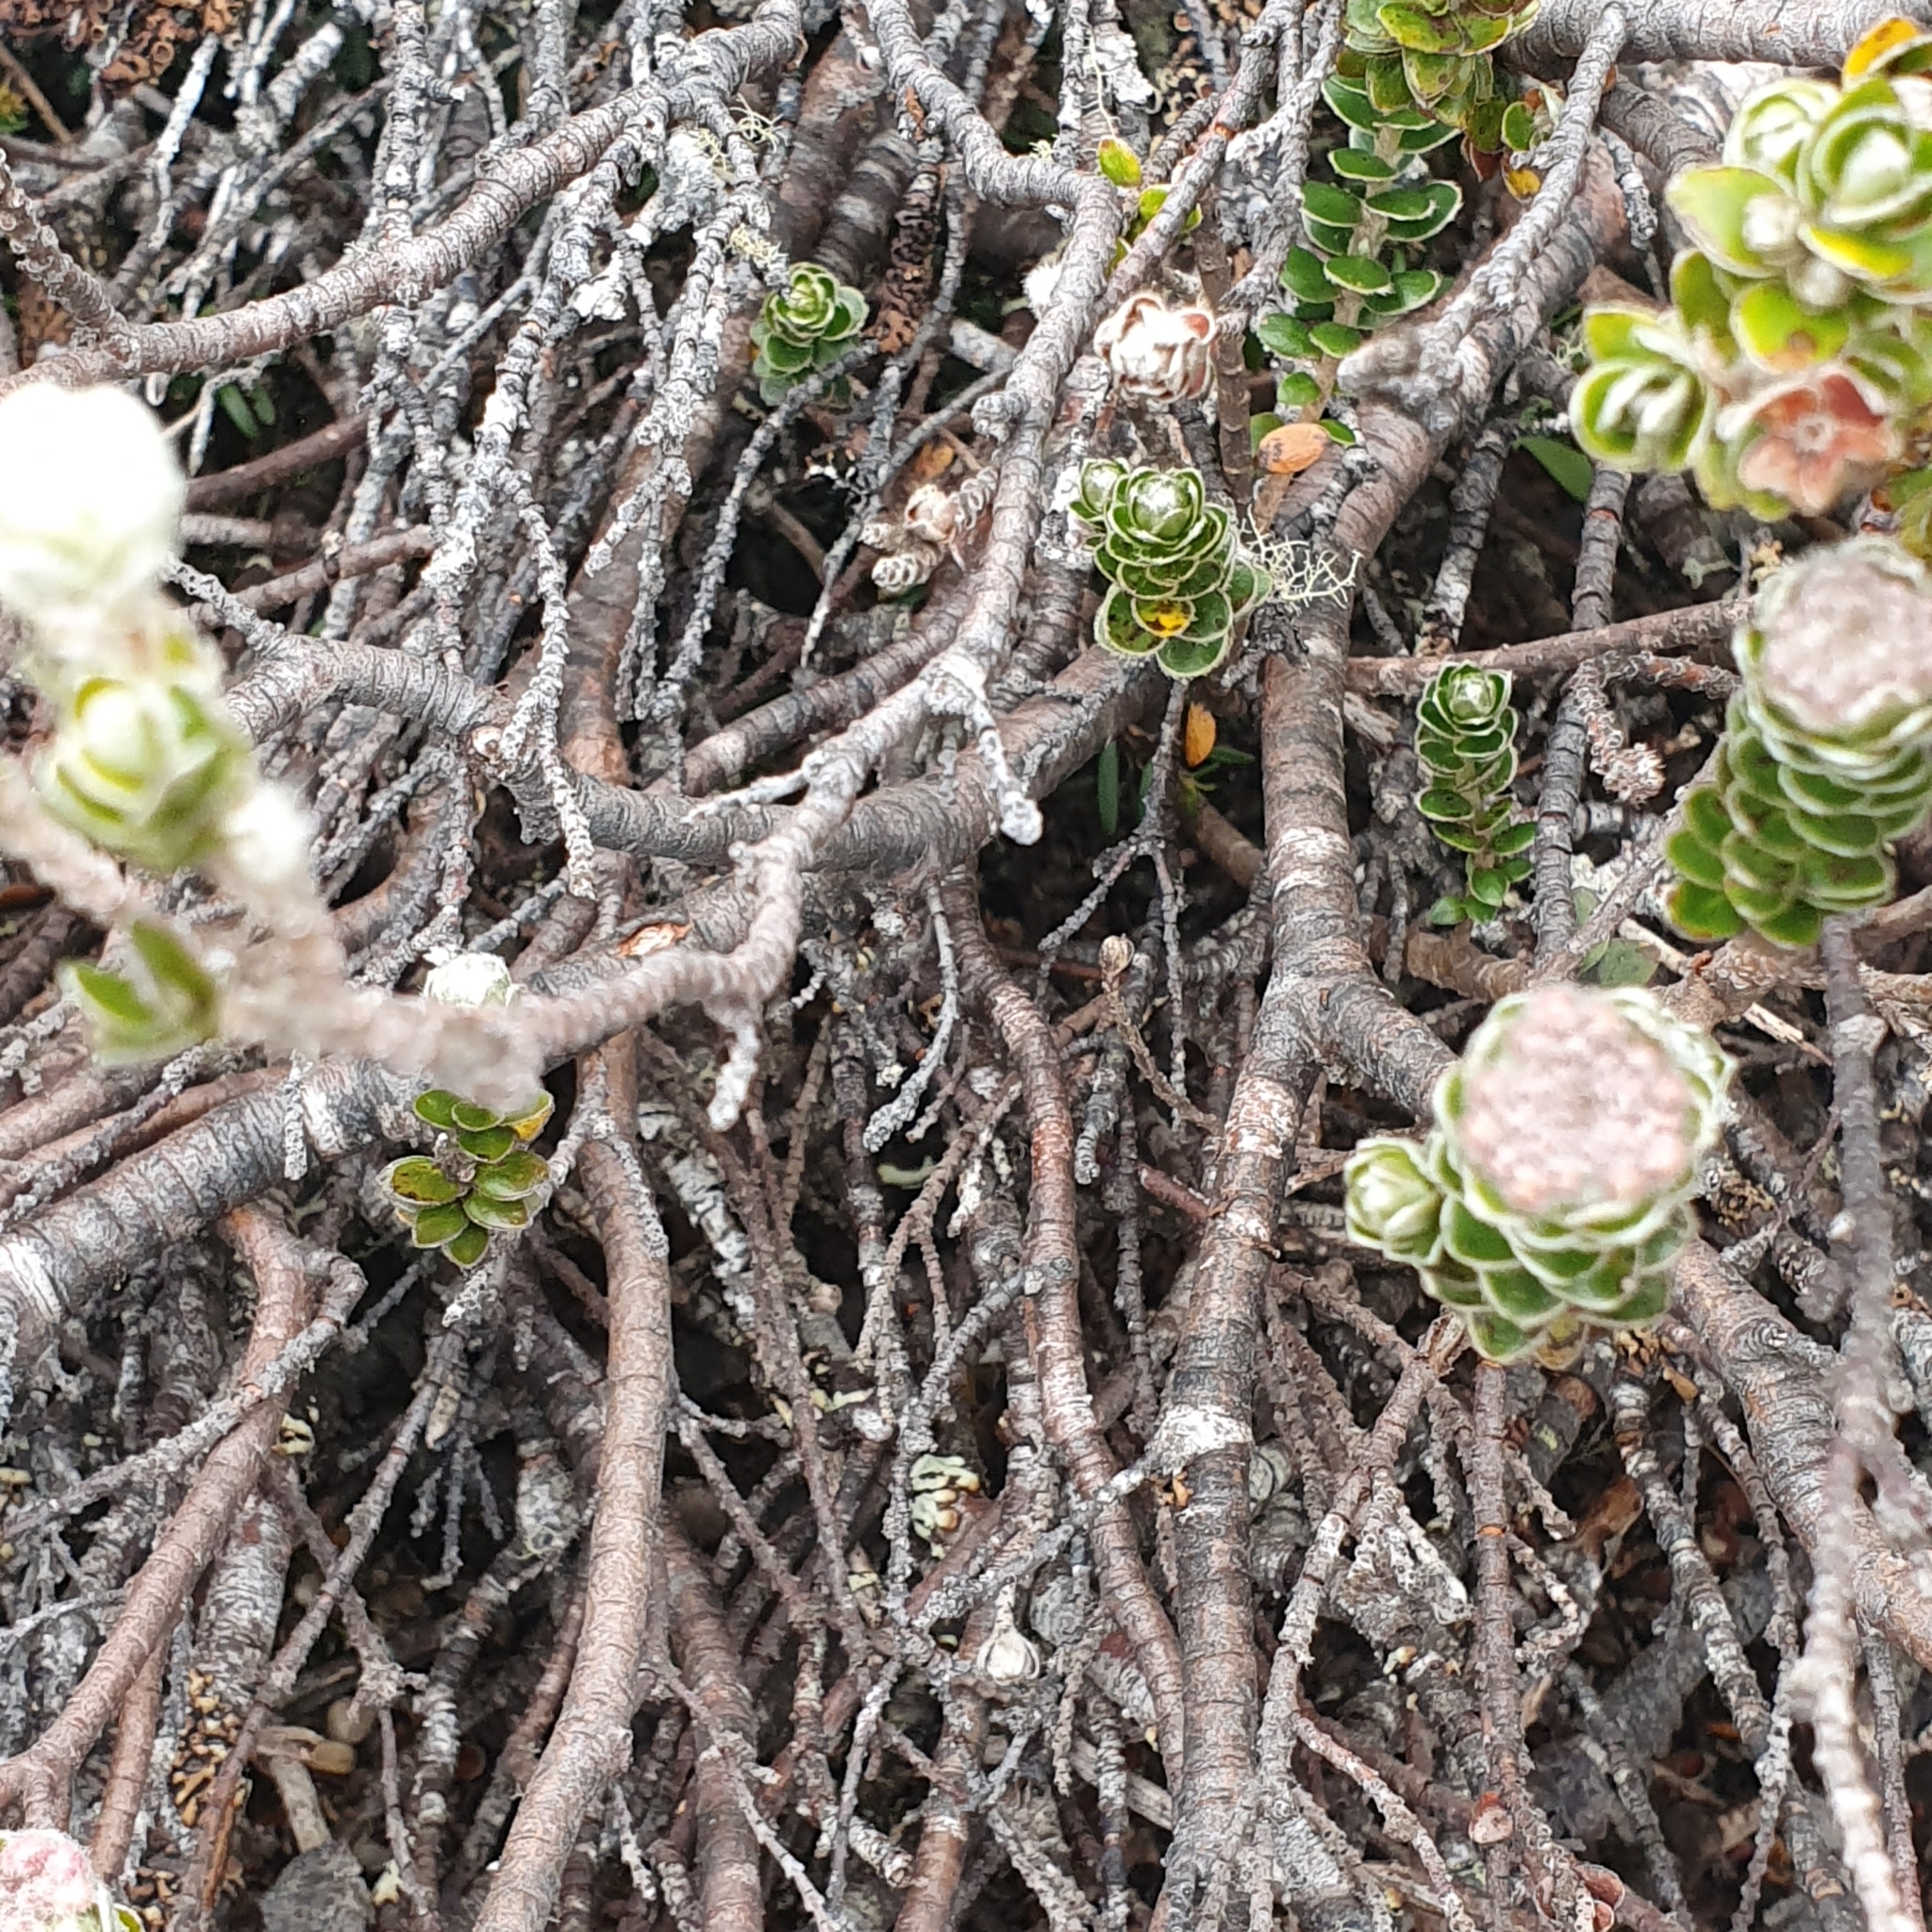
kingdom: Plantae
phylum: Tracheophyta
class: Magnoliopsida
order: Malvales
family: Thymelaeaceae
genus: Pimelea
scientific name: Pimelea sericea
